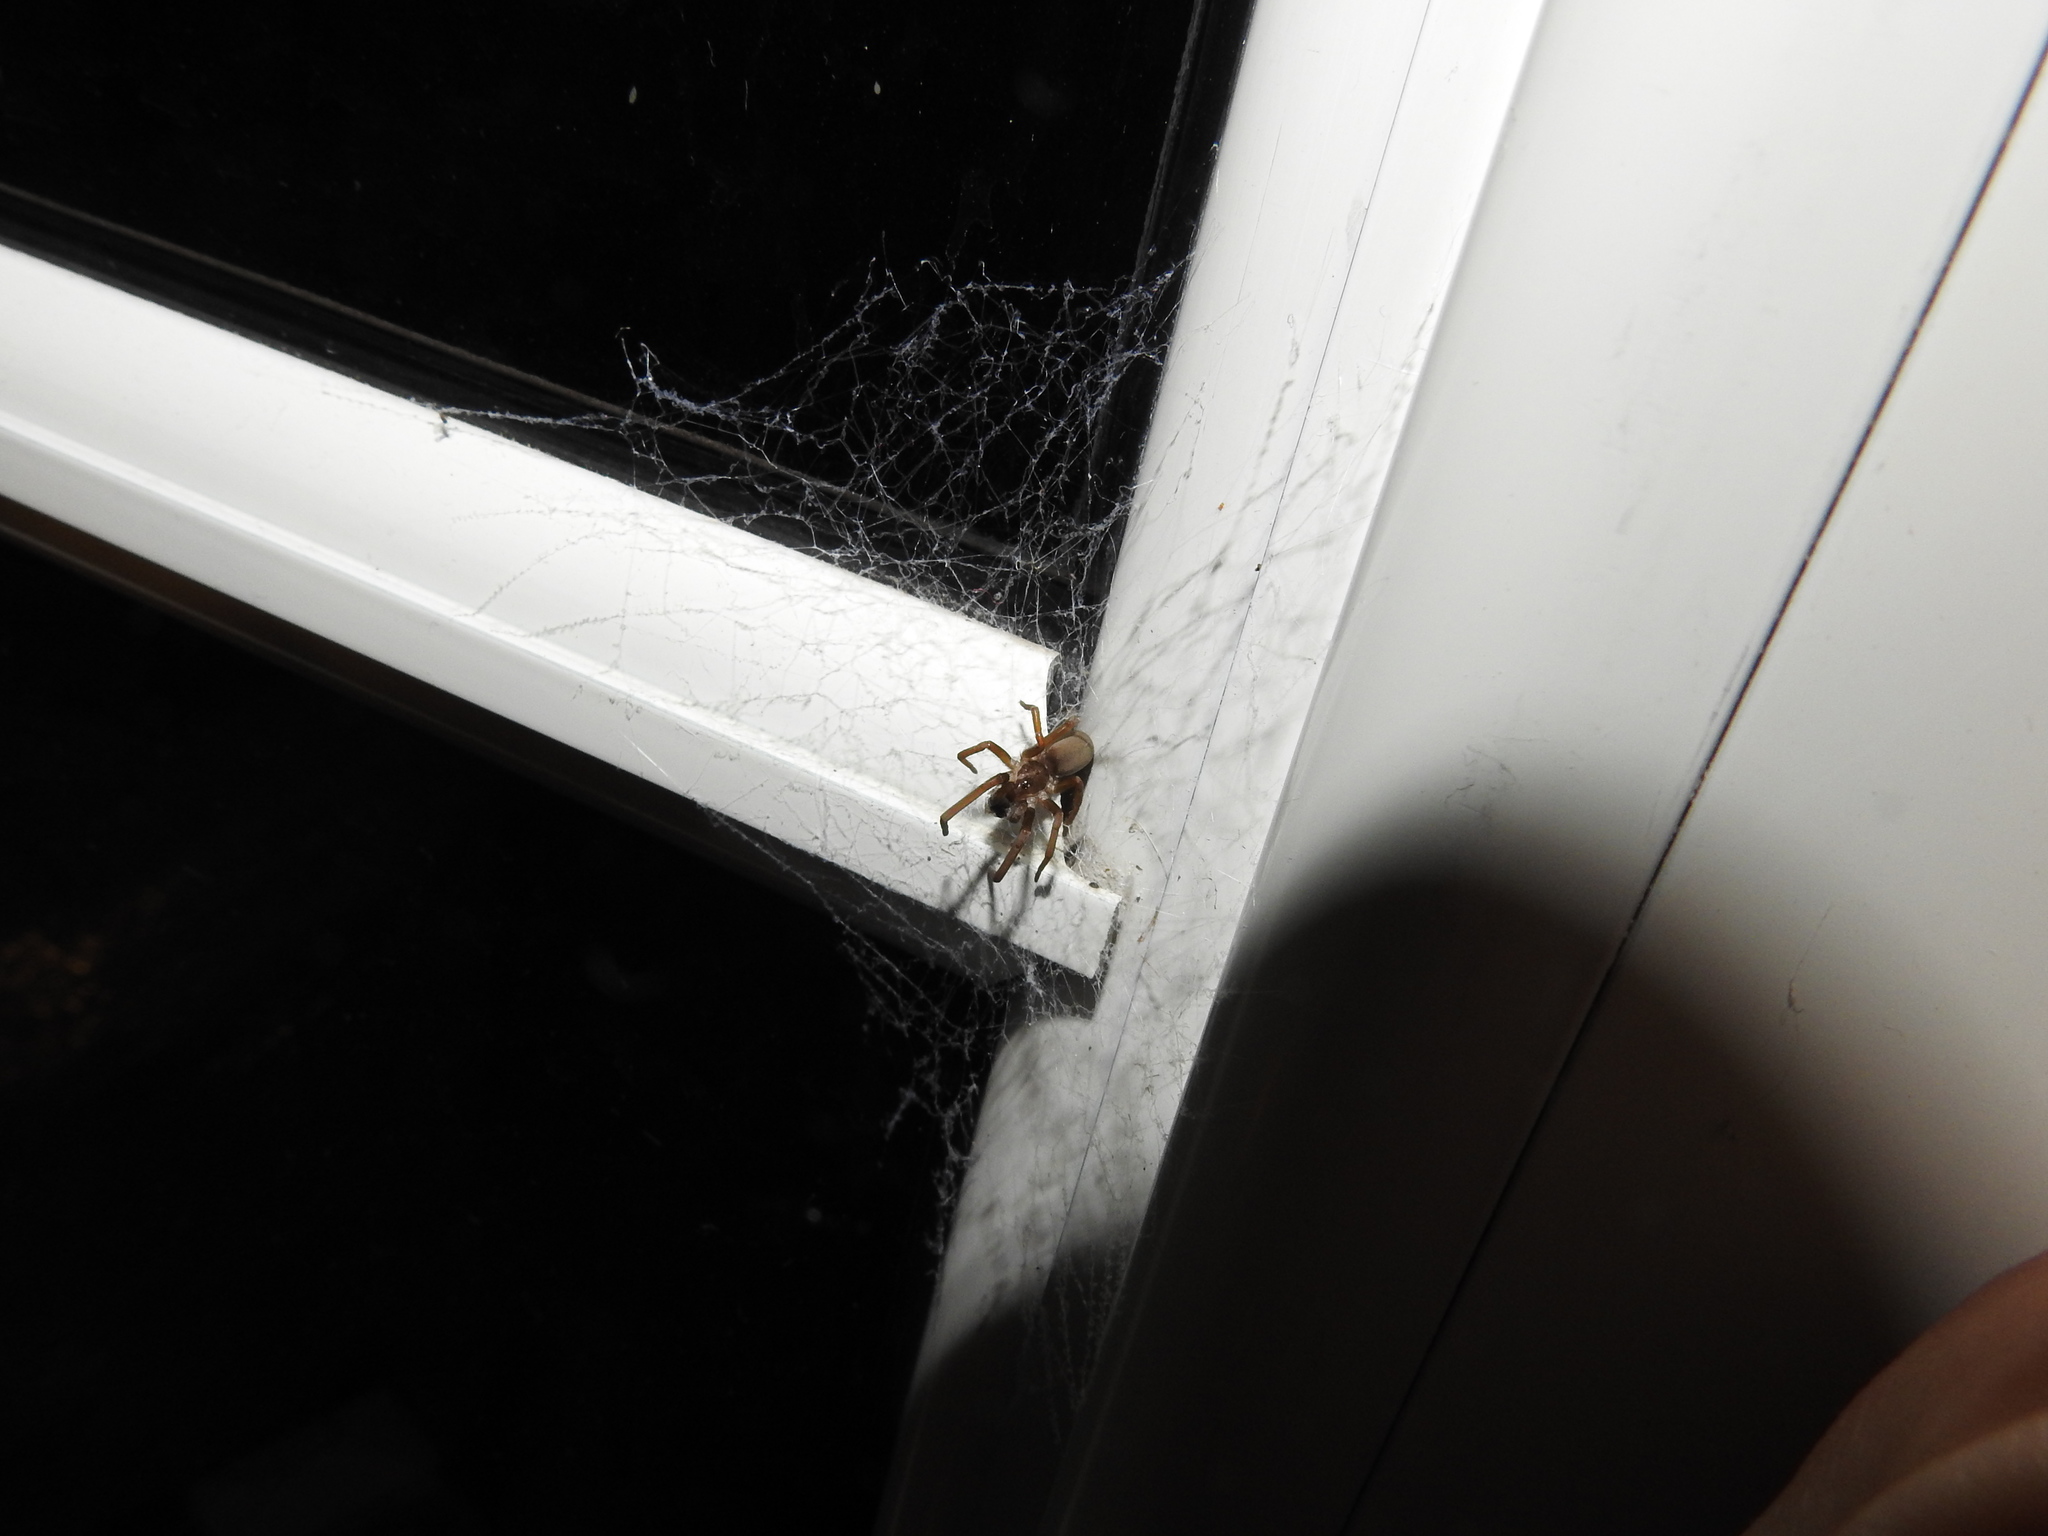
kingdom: Animalia
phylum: Arthropoda
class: Arachnida
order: Araneae
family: Filistatidae
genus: Kukulcania
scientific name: Kukulcania hibernalis
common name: Crevice weaver
